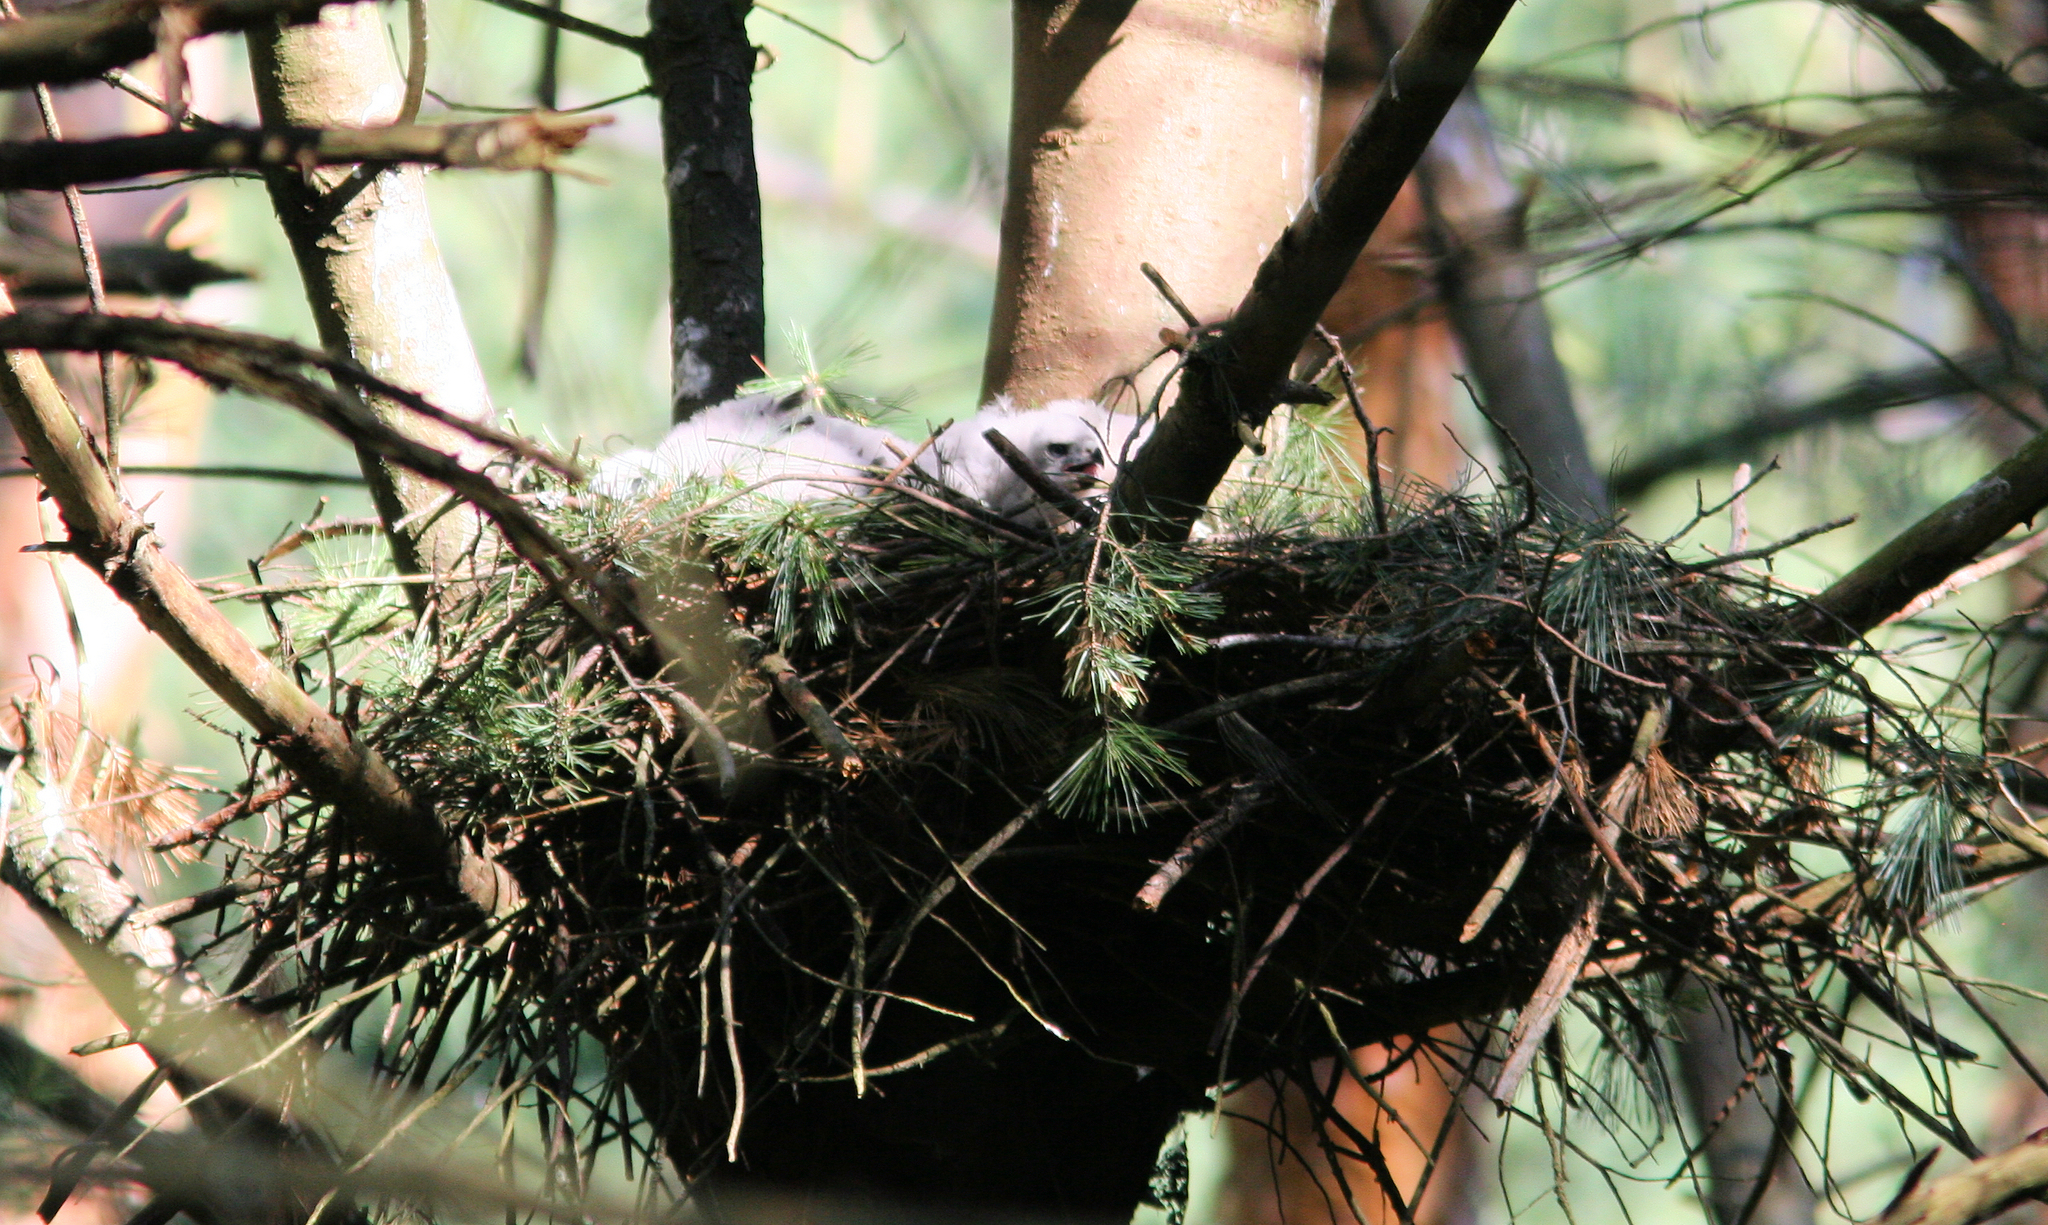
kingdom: Animalia
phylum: Chordata
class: Aves
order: Accipitriformes
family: Accipitridae
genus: Accipiter
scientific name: Accipiter gentilis
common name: Northern goshawk
